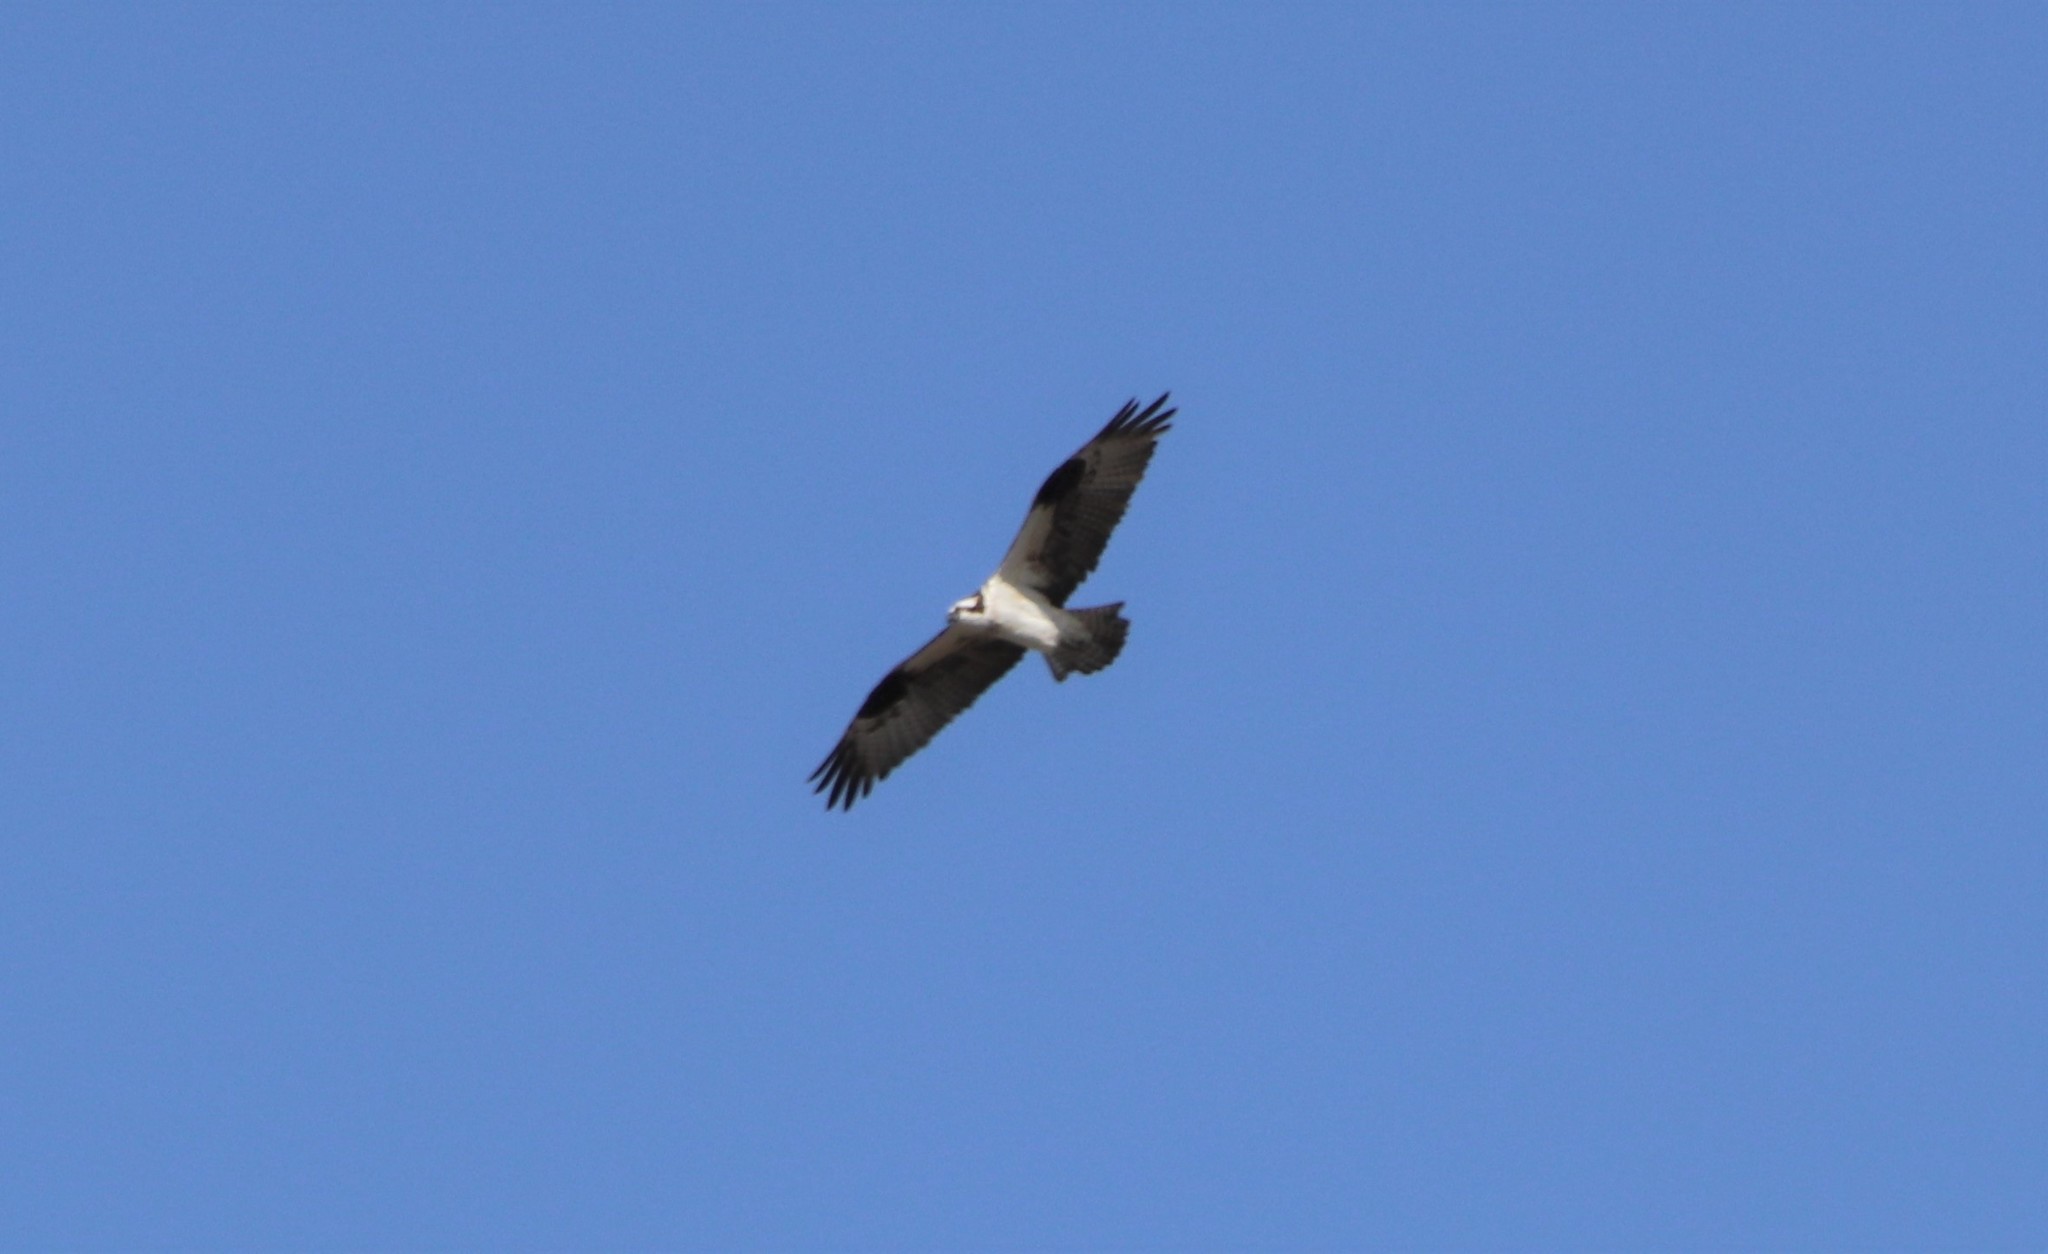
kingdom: Animalia
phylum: Chordata
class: Aves
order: Accipitriformes
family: Pandionidae
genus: Pandion
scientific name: Pandion haliaetus
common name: Osprey
